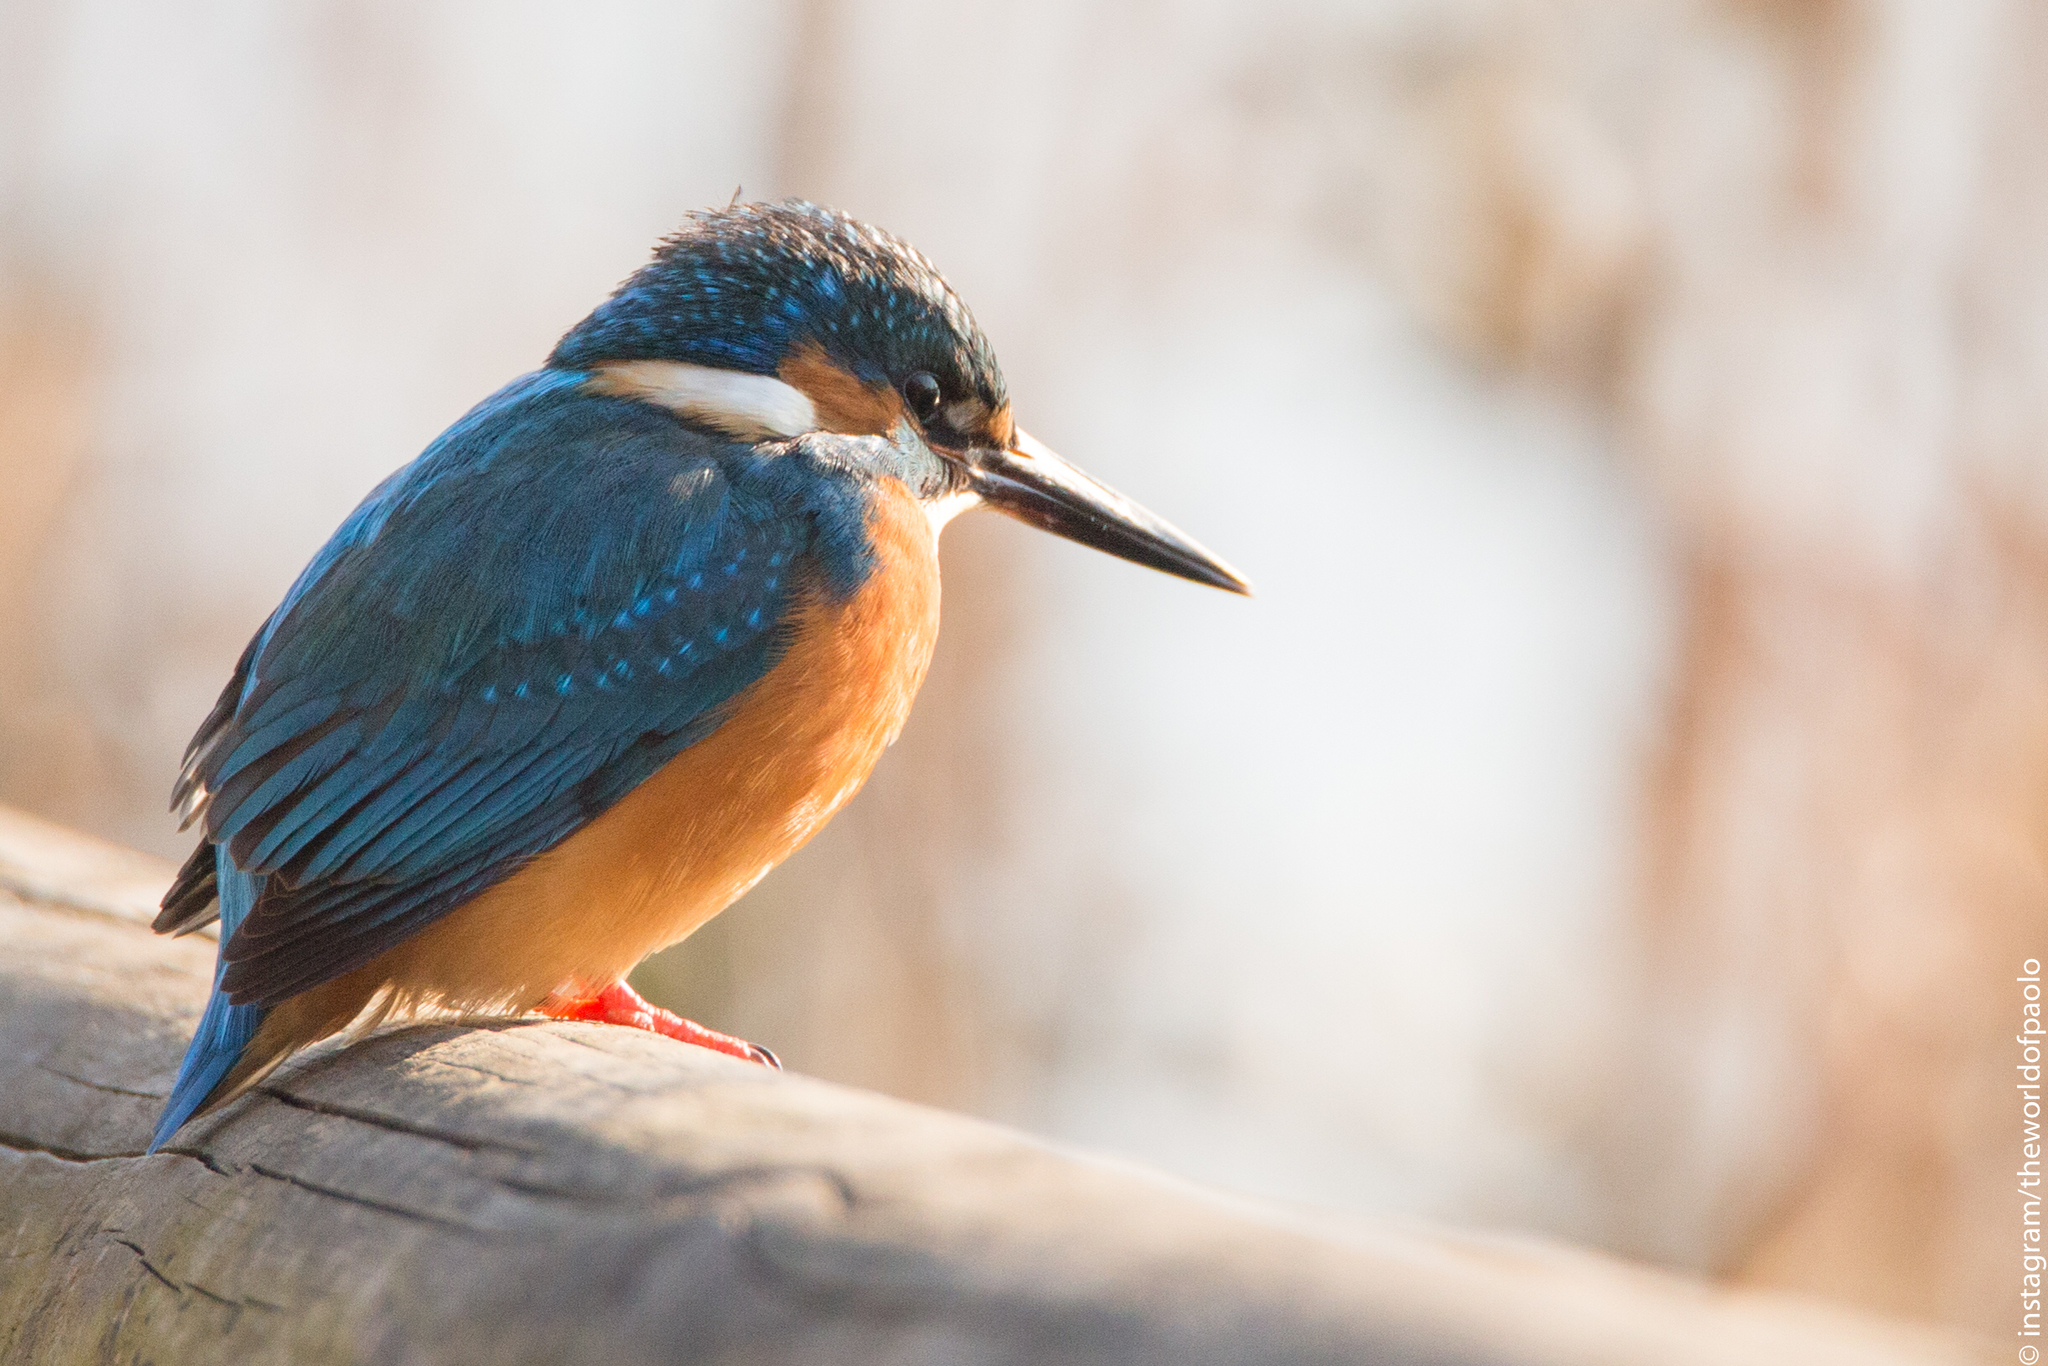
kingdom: Animalia
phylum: Chordata
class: Aves
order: Coraciiformes
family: Alcedinidae
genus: Alcedo
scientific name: Alcedo atthis
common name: Common kingfisher
